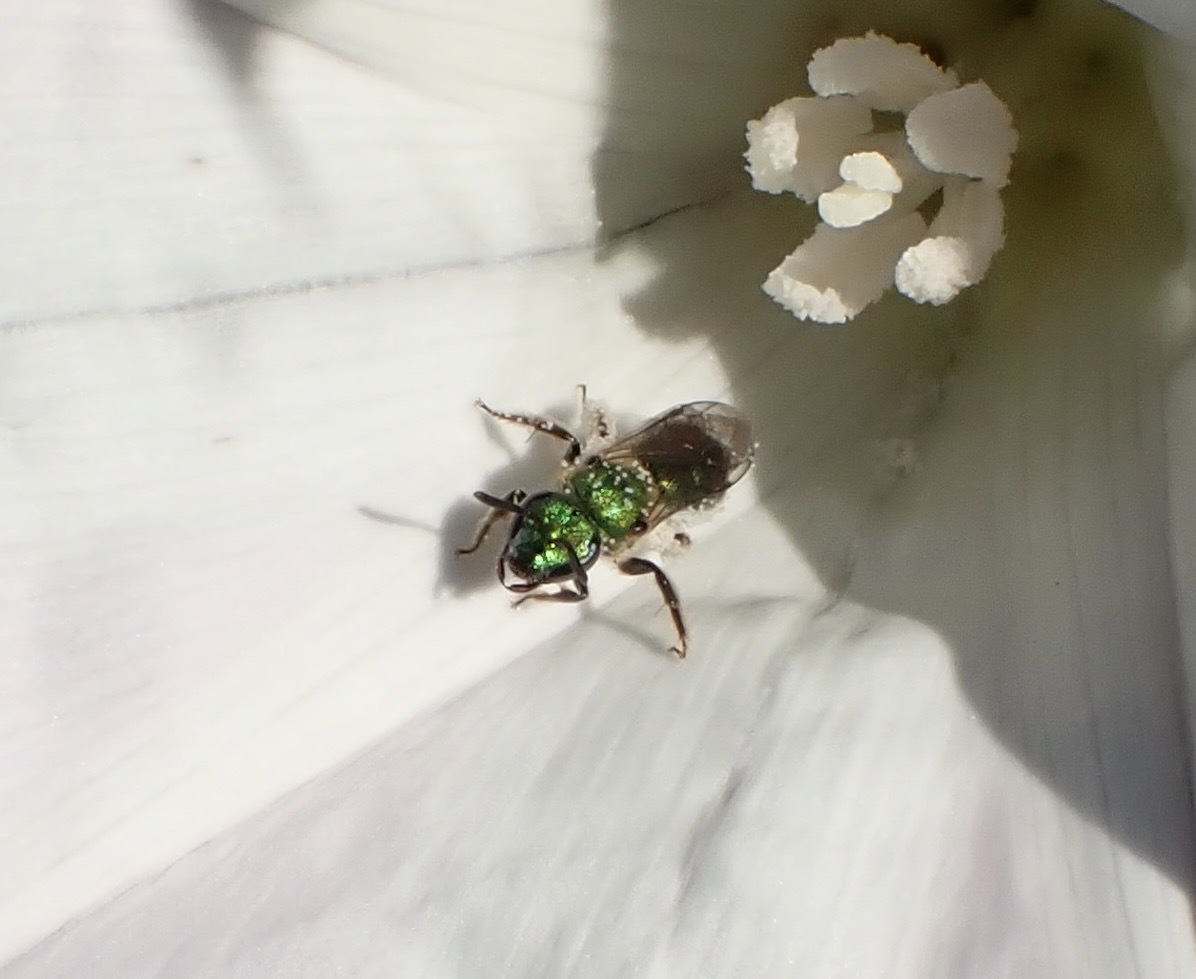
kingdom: Animalia
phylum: Arthropoda
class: Insecta
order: Hymenoptera
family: Halictidae
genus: Augochlorella
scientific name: Augochlorella pomoniella
